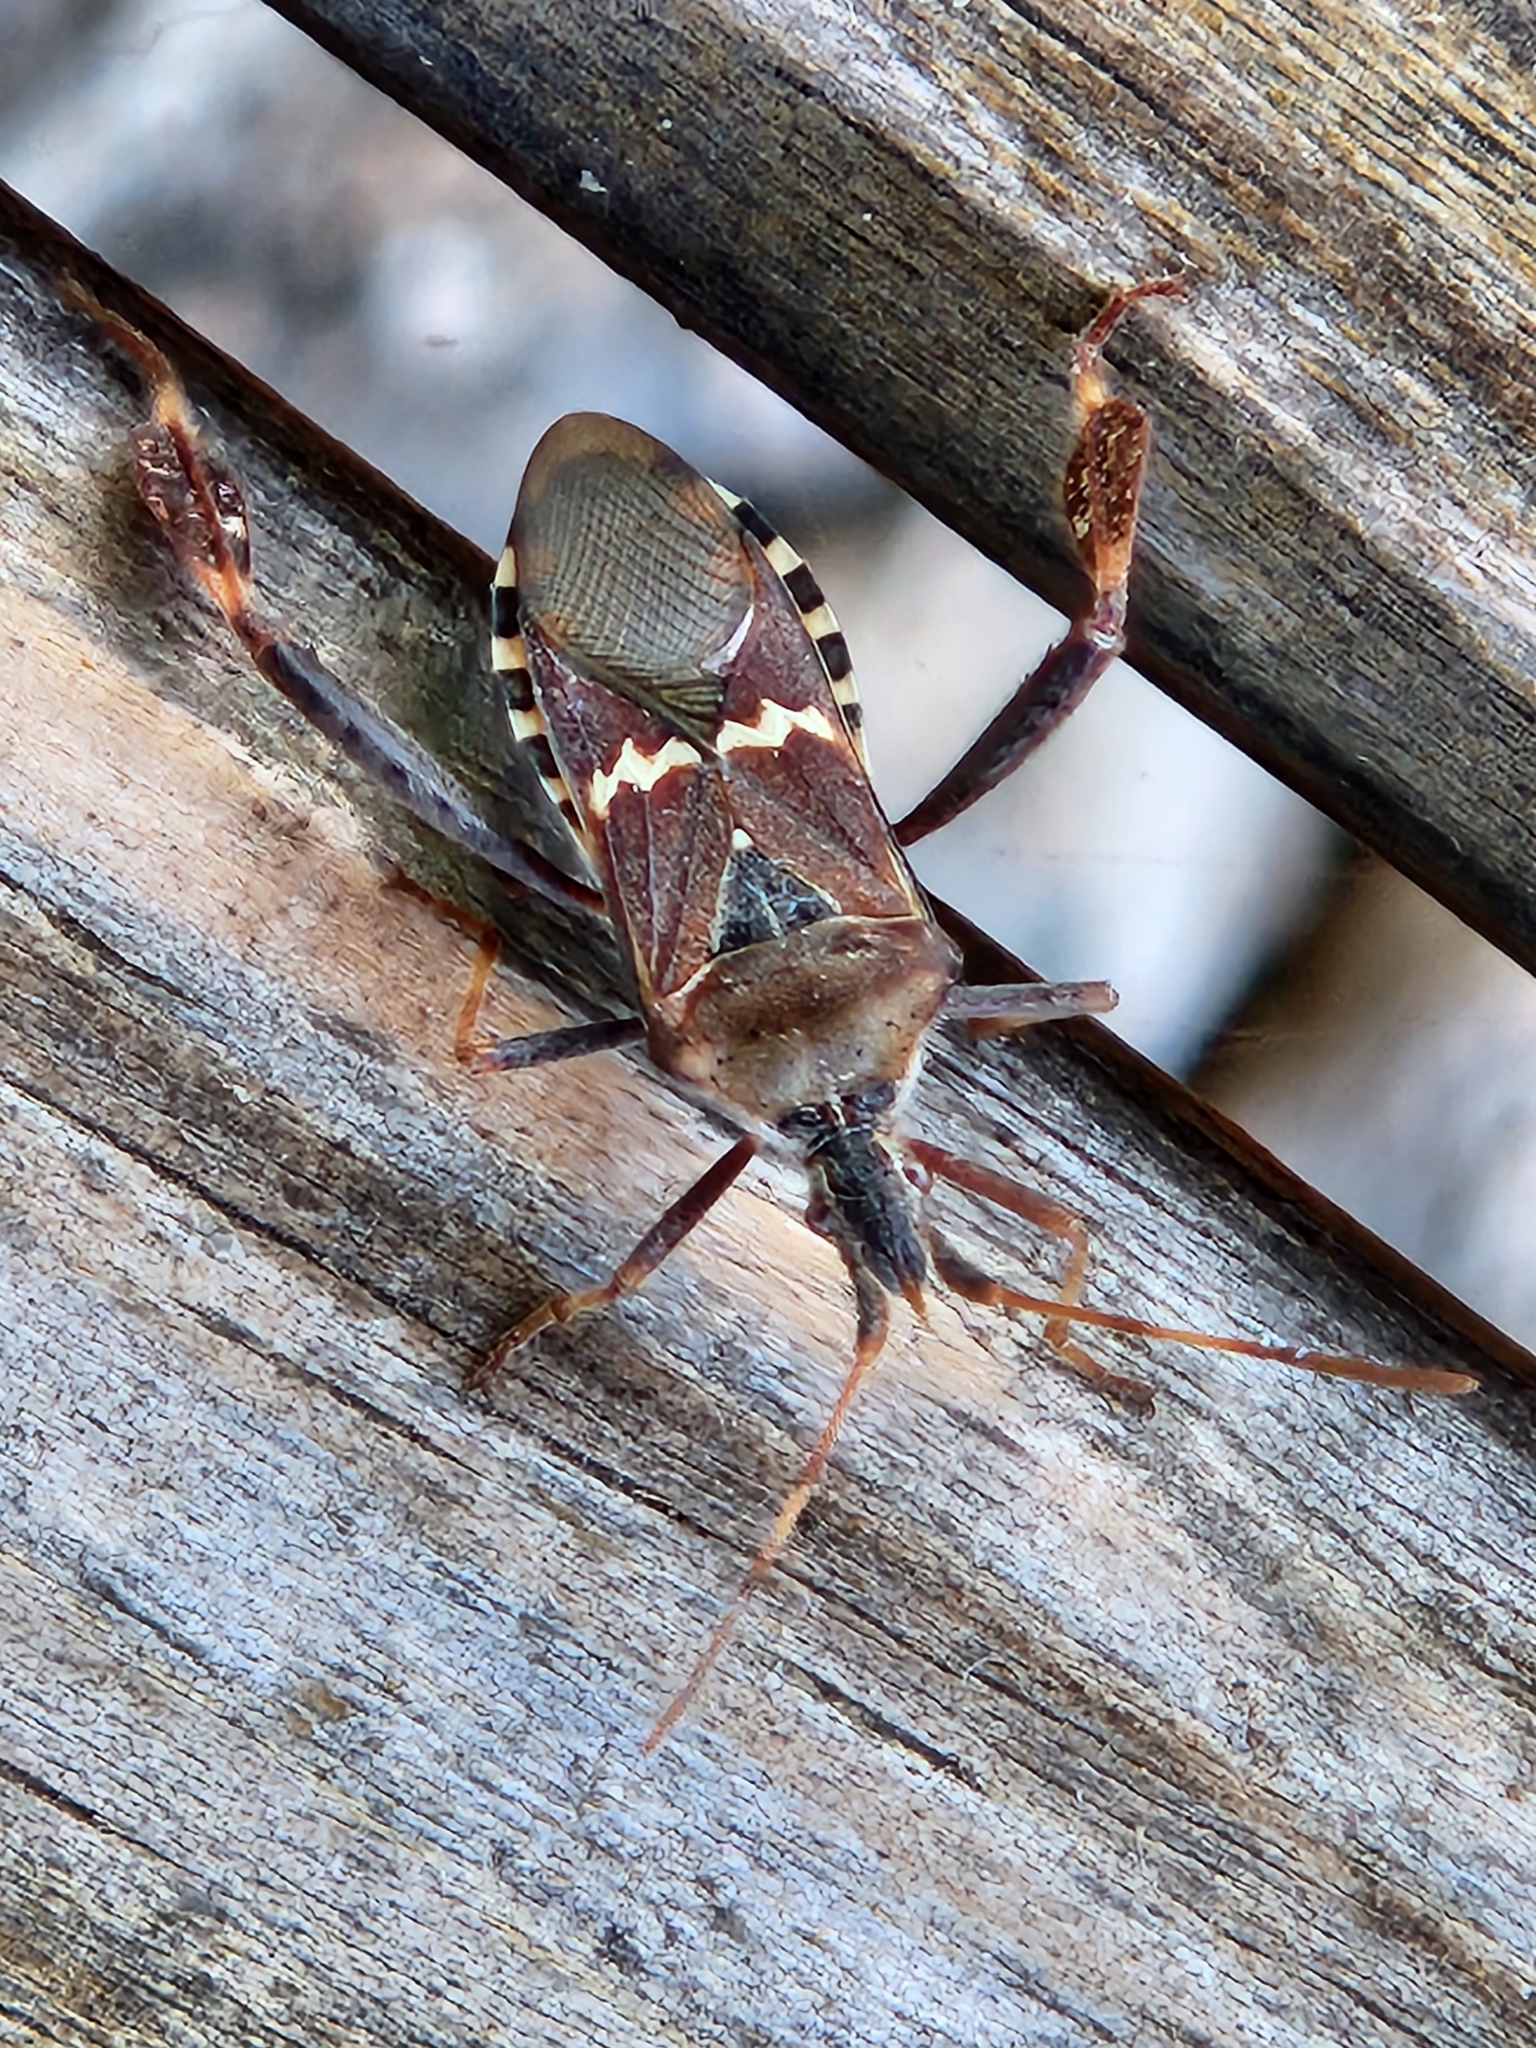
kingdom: Animalia
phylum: Arthropoda
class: Insecta
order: Hemiptera
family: Coreidae
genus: Leptoglossus
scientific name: Leptoglossus clypealis
